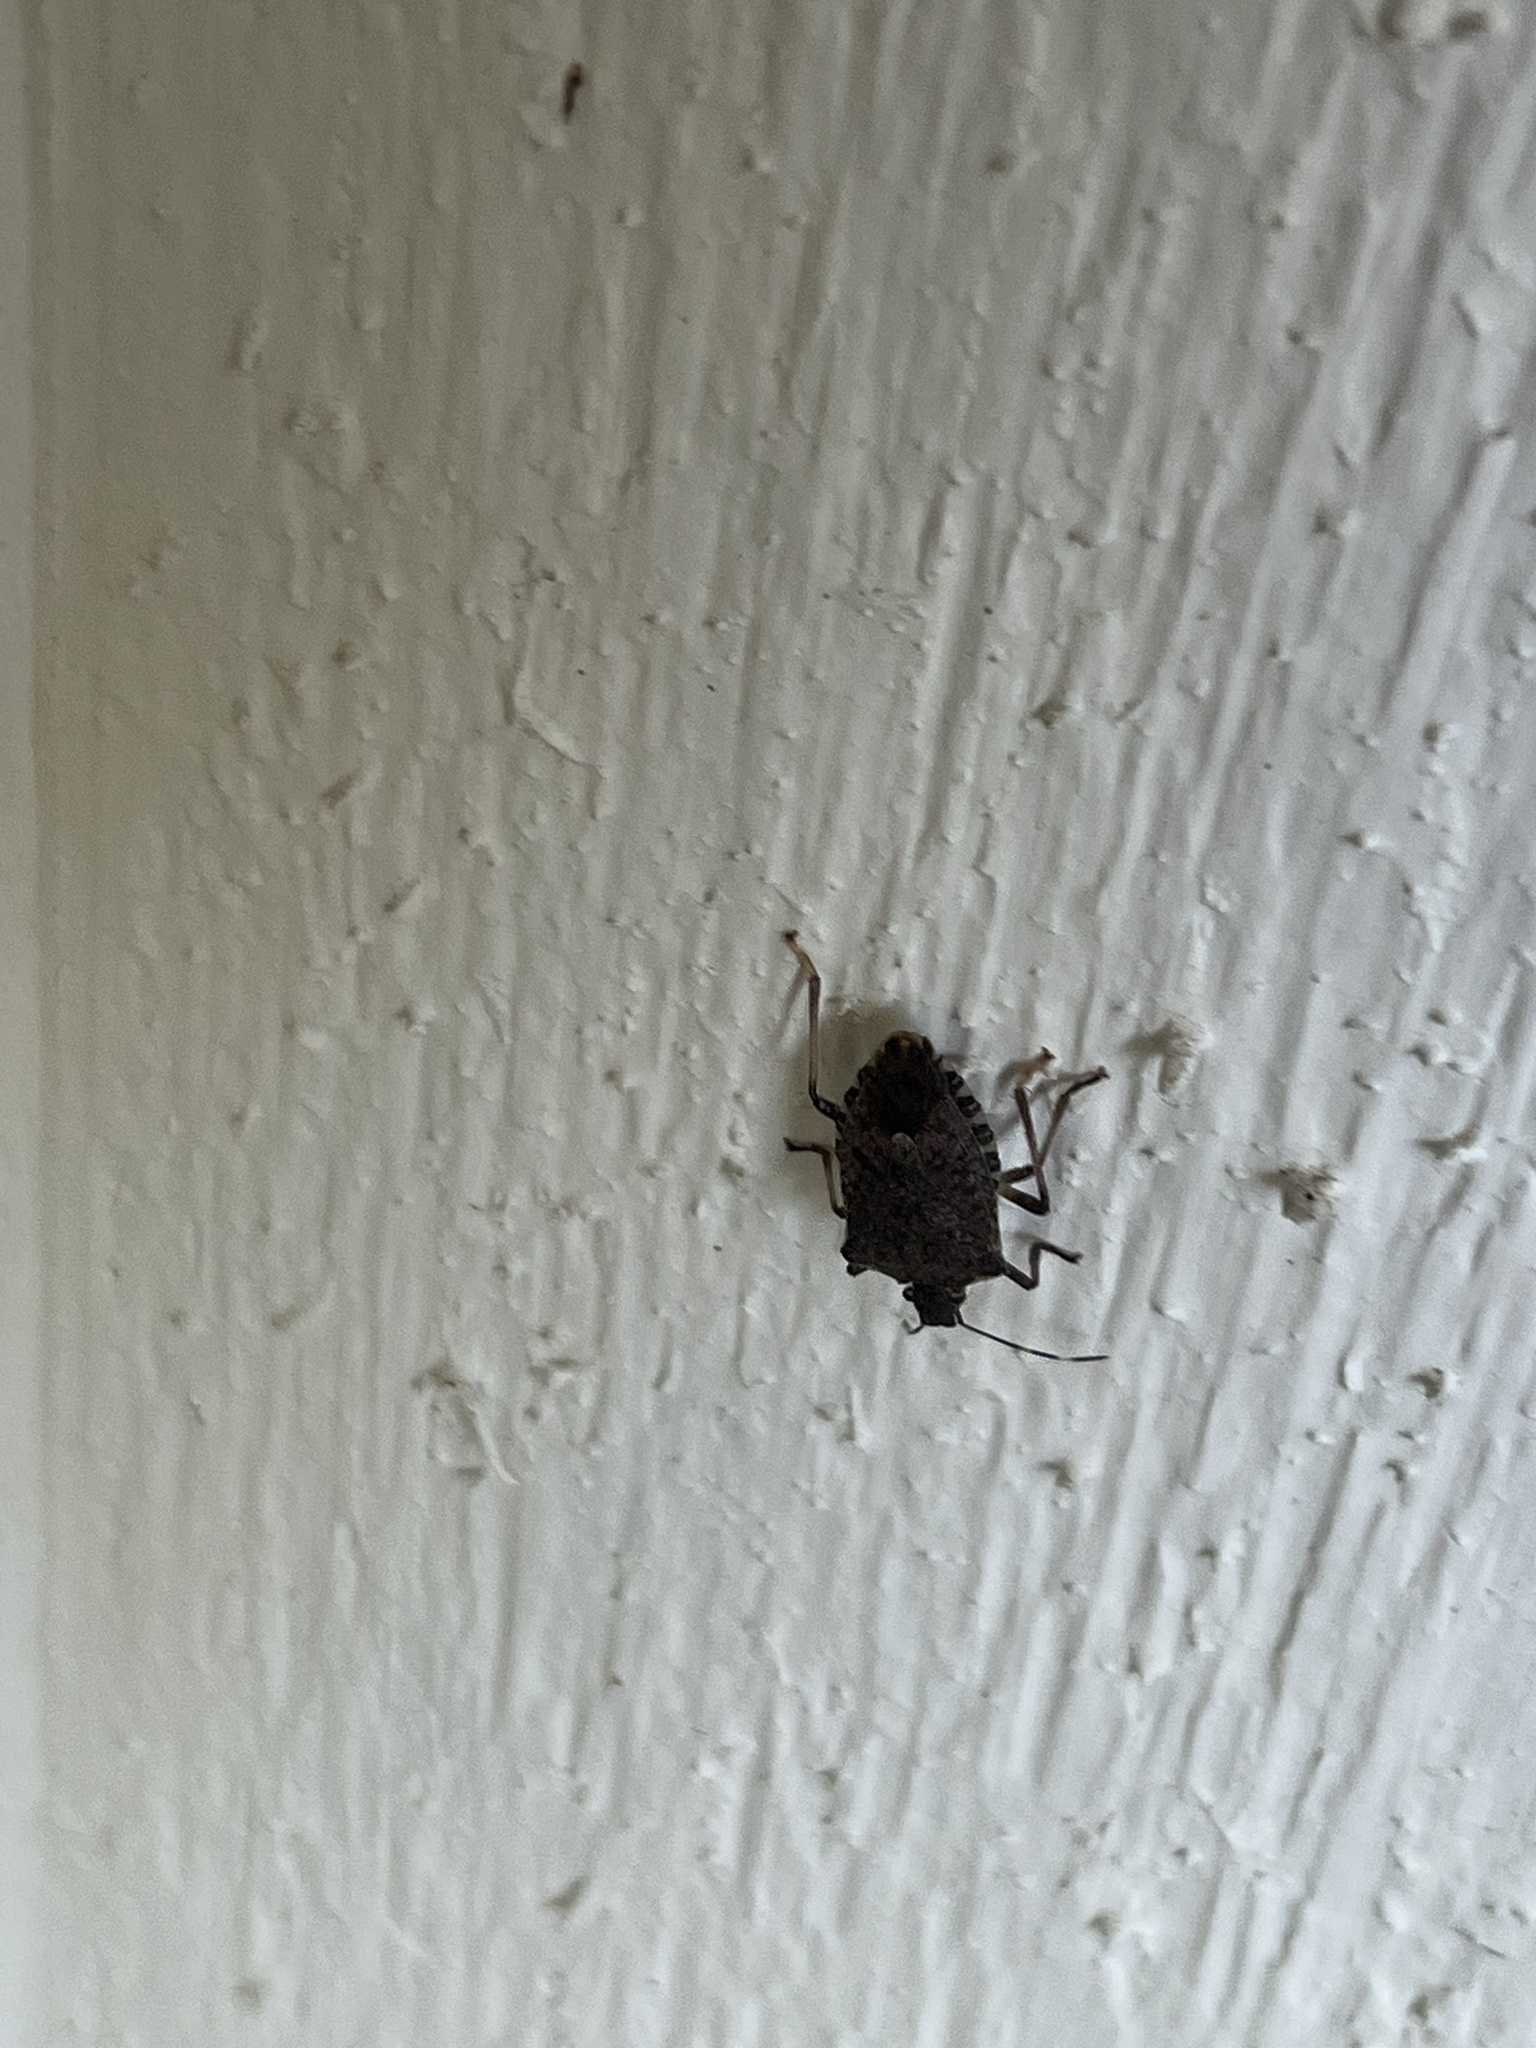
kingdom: Animalia
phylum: Arthropoda
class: Insecta
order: Hemiptera
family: Pentatomidae
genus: Halyomorpha
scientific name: Halyomorpha halys
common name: Brown marmorated stink bug
